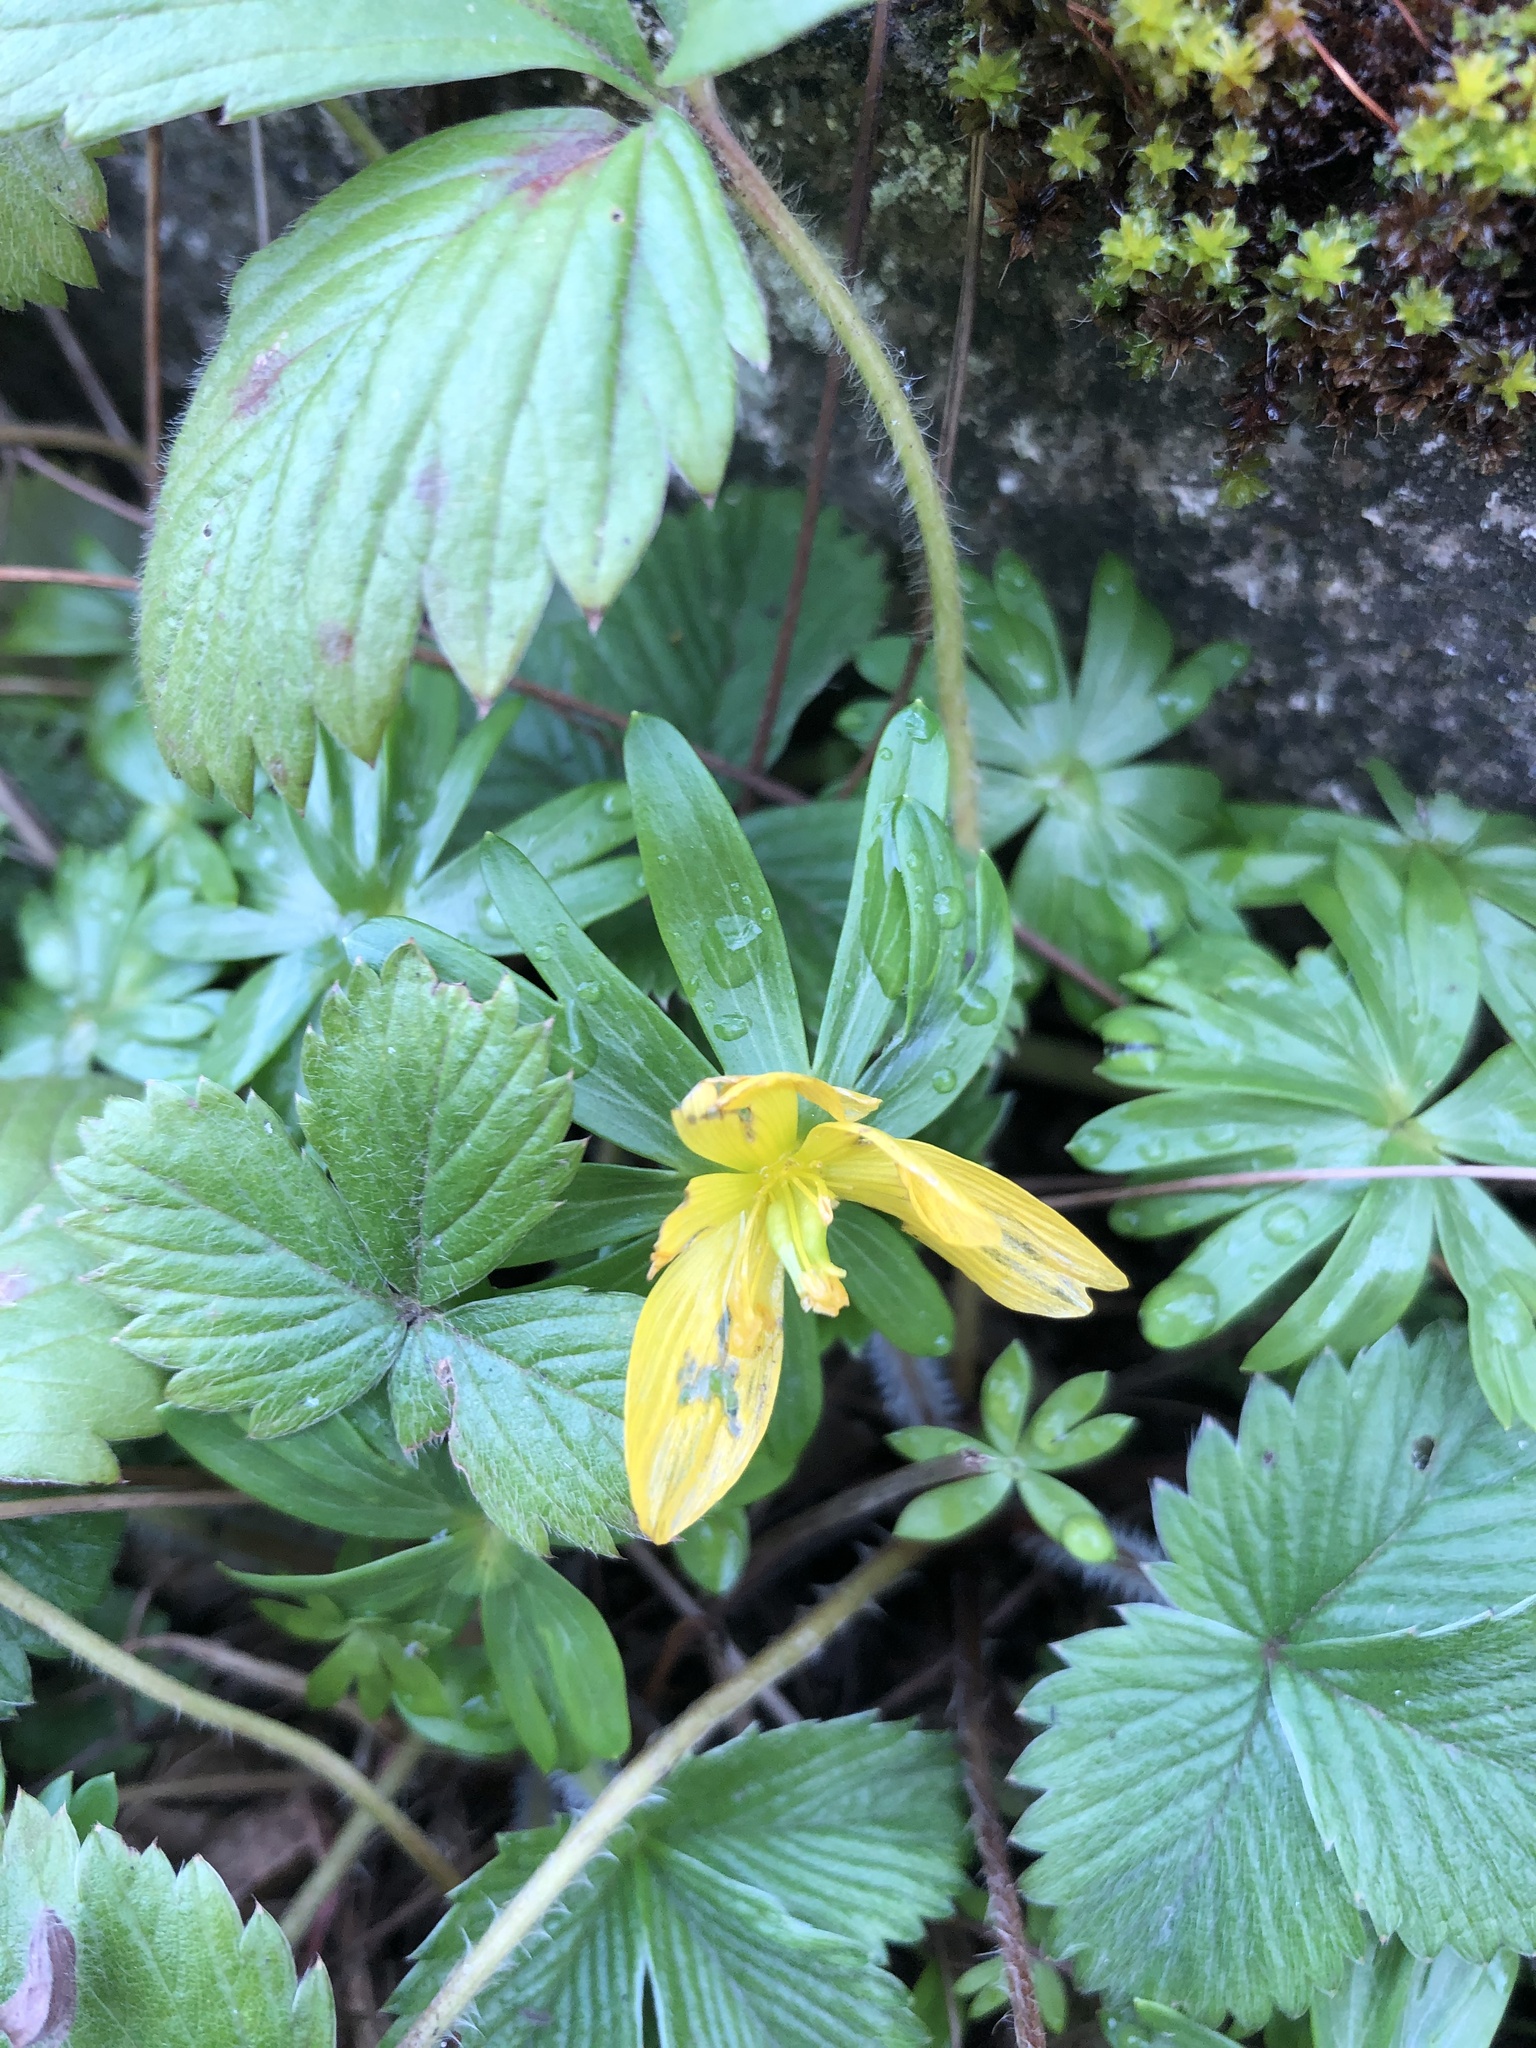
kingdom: Plantae
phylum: Tracheophyta
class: Magnoliopsida
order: Ranunculales
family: Ranunculaceae
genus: Eranthis
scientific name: Eranthis hyemalis
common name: Winter aconite
